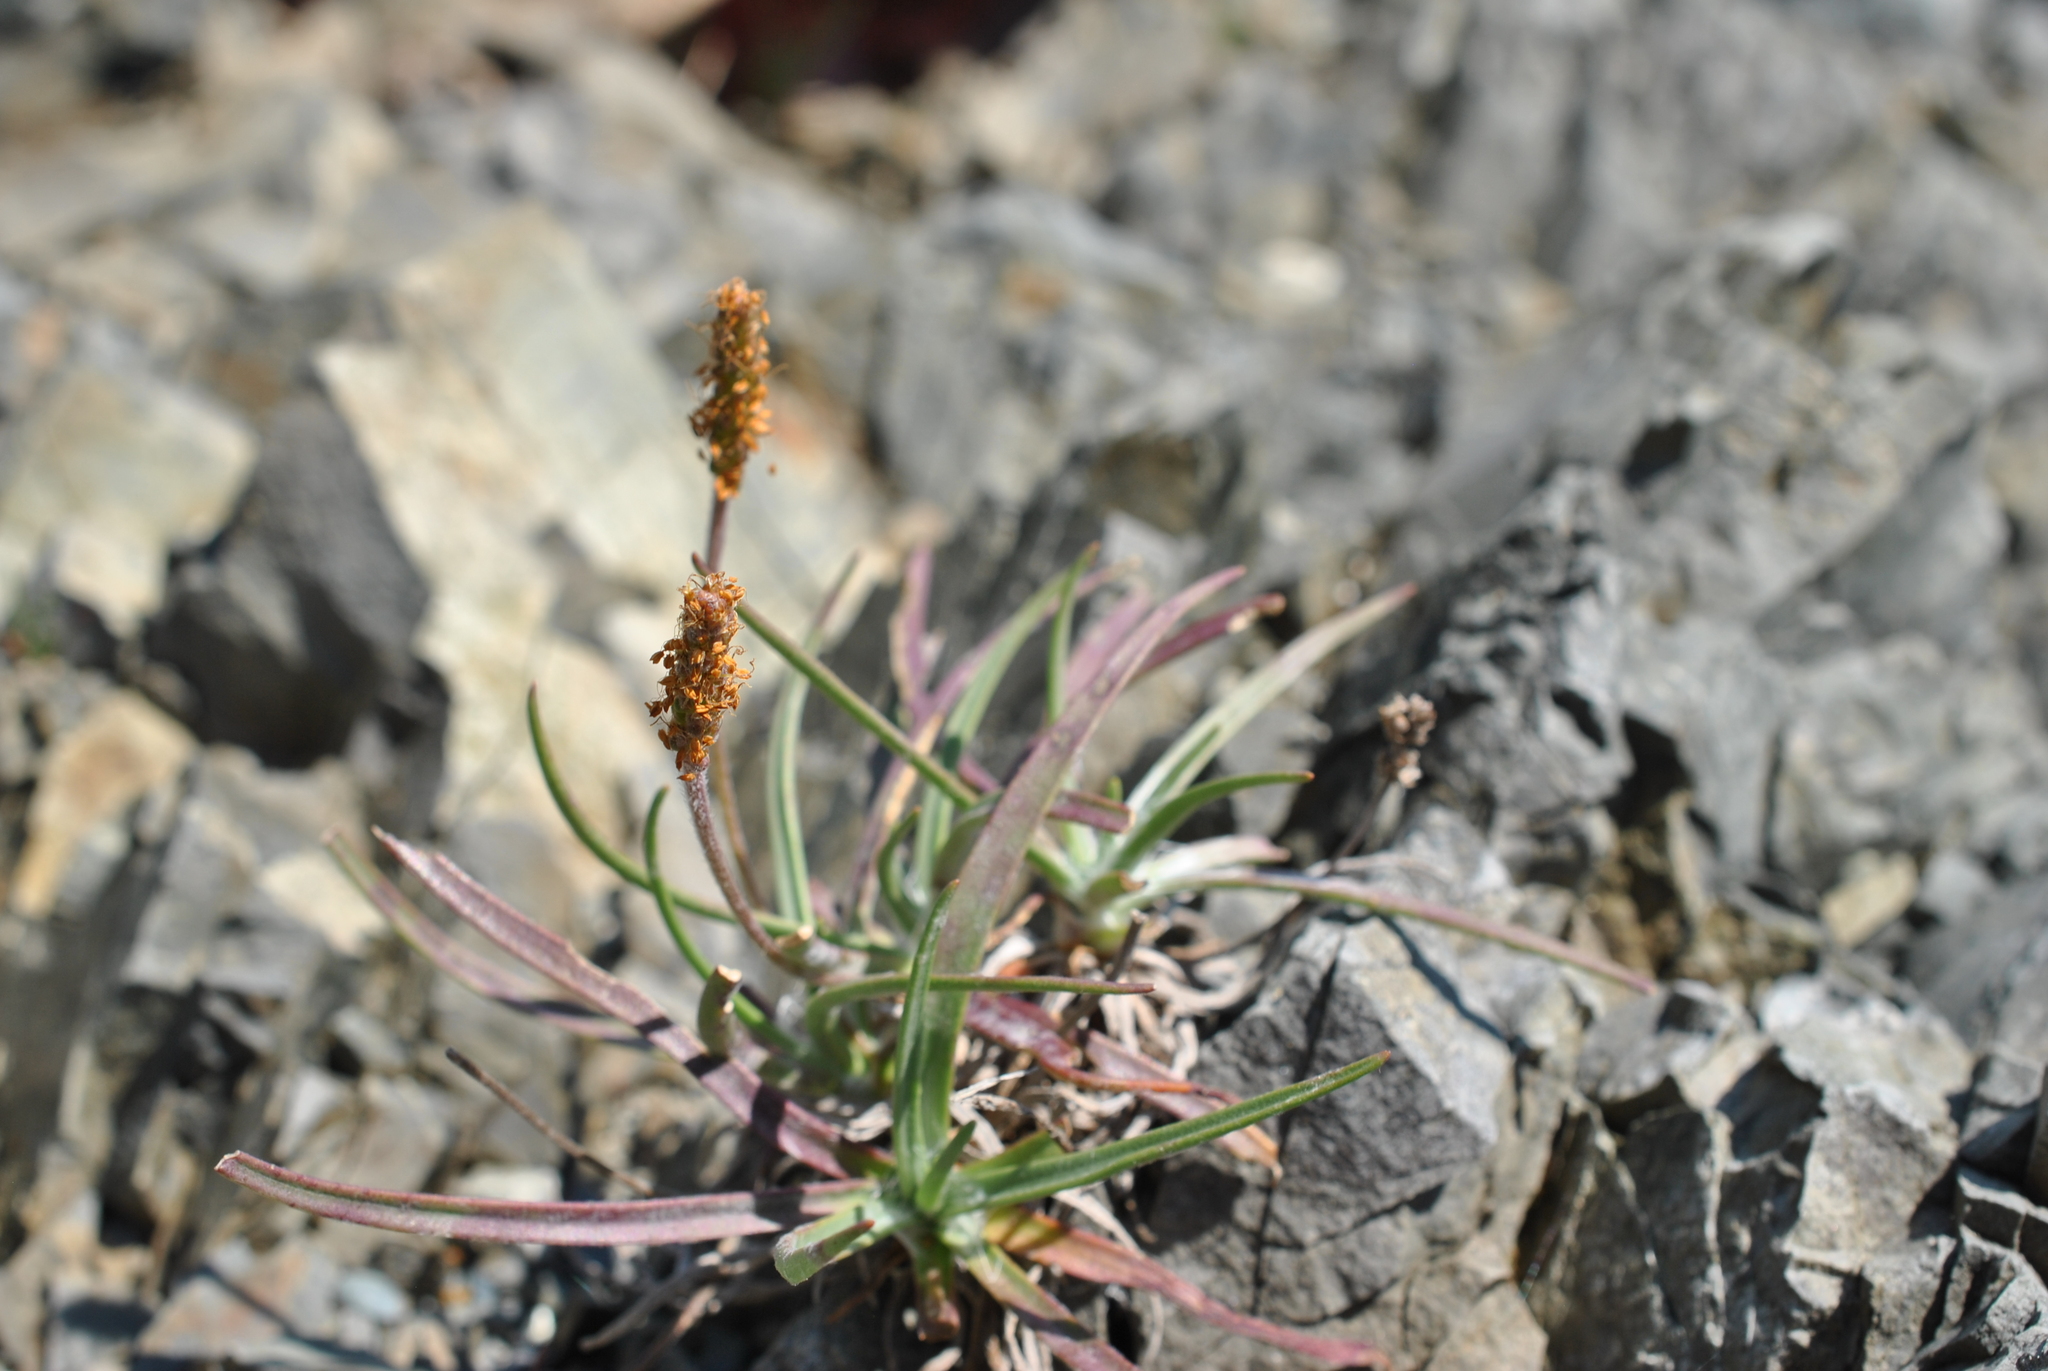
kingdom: Plantae
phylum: Tracheophyta
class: Magnoliopsida
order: Lamiales
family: Plantaginaceae
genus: Plantago
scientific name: Plantago maritima
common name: Sea plantain
